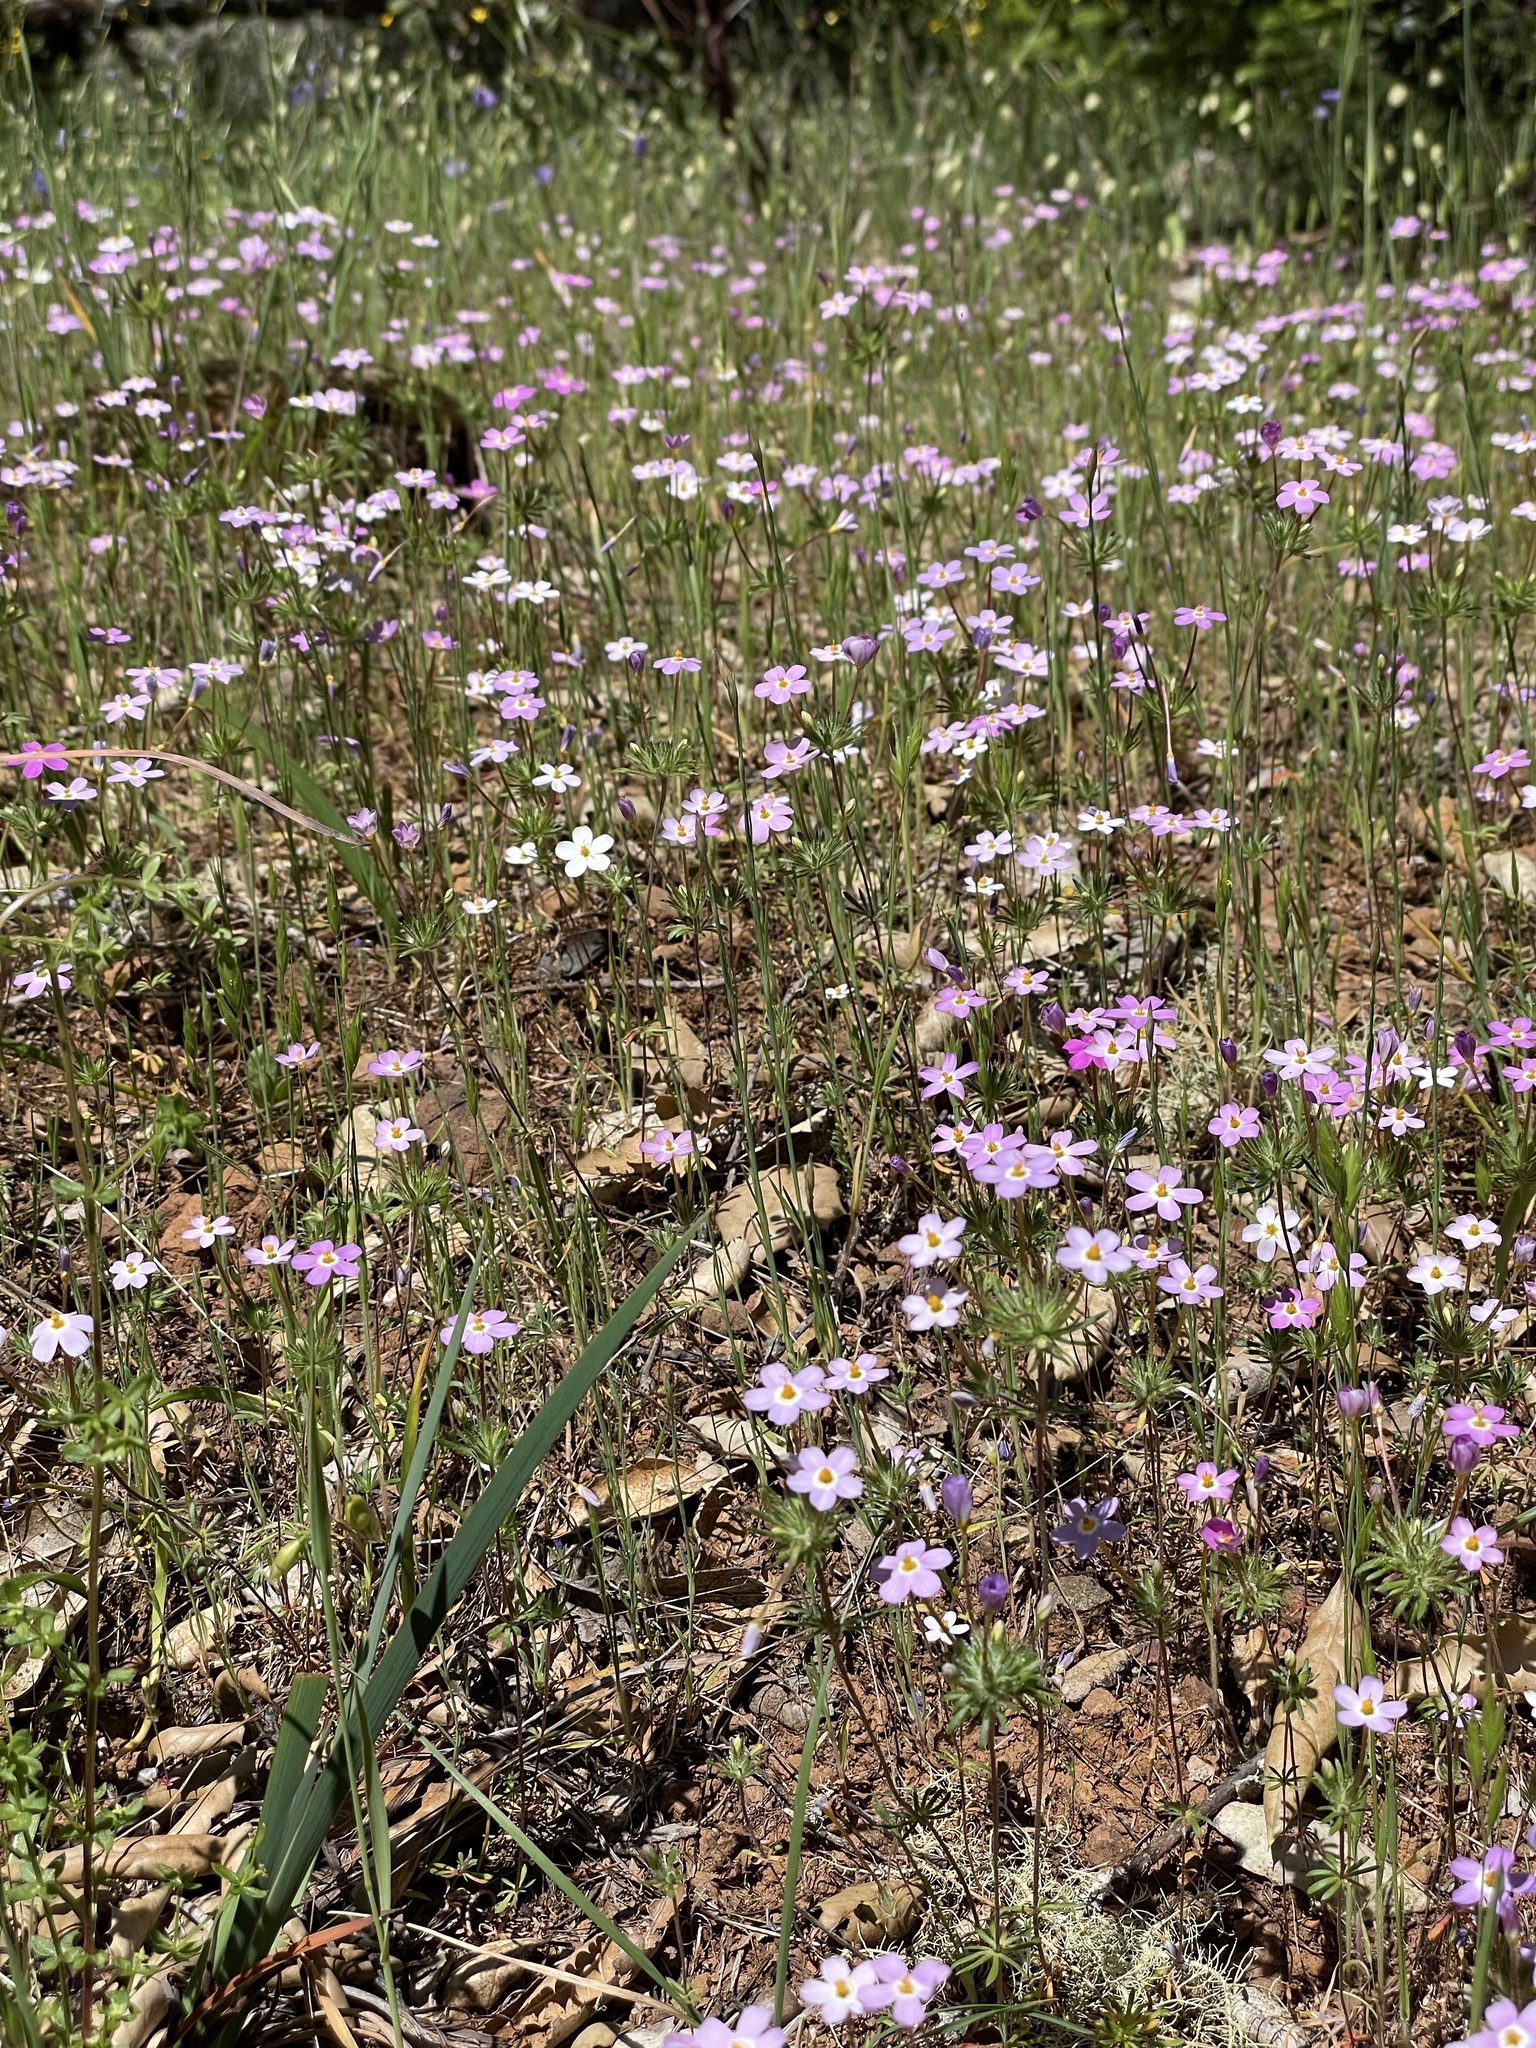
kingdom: Plantae
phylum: Tracheophyta
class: Magnoliopsida
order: Ericales
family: Polemoniaceae
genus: Leptosiphon
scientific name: Leptosiphon androsaceus
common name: False babystars
